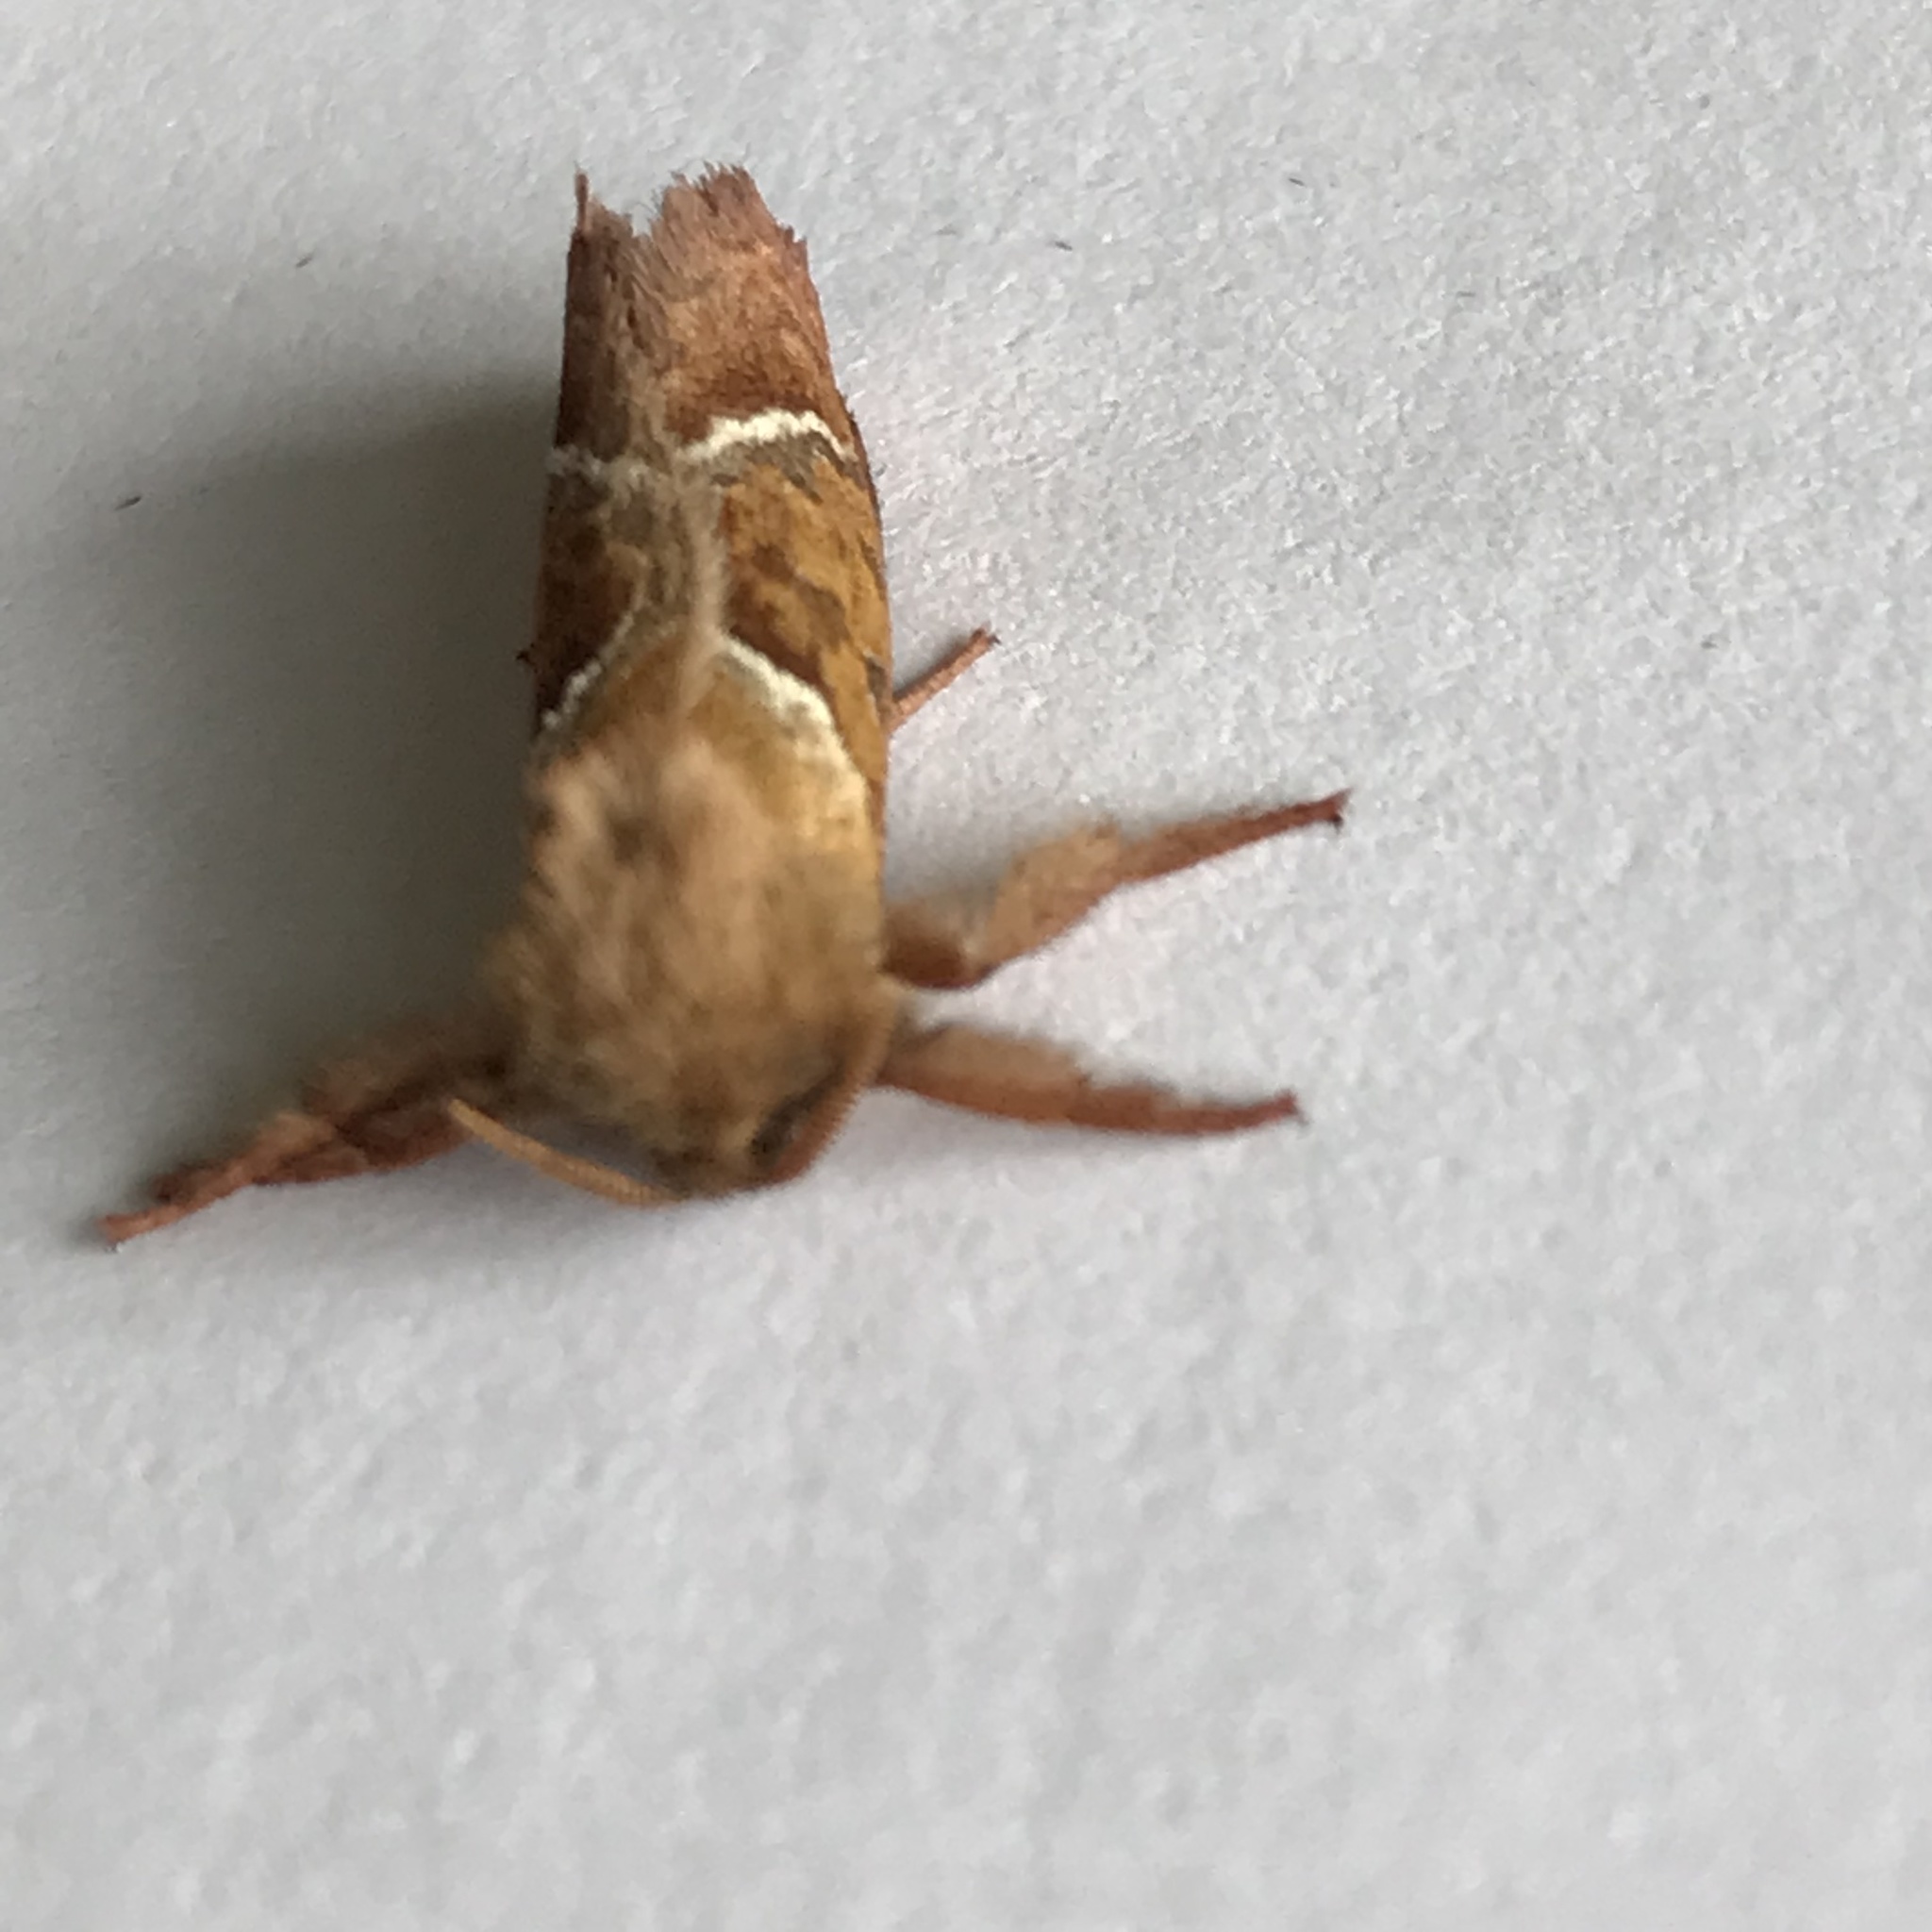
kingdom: Animalia
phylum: Arthropoda
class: Insecta
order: Lepidoptera
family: Hepialidae
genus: Triodia
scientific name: Triodia sylvina
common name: Orange swift
